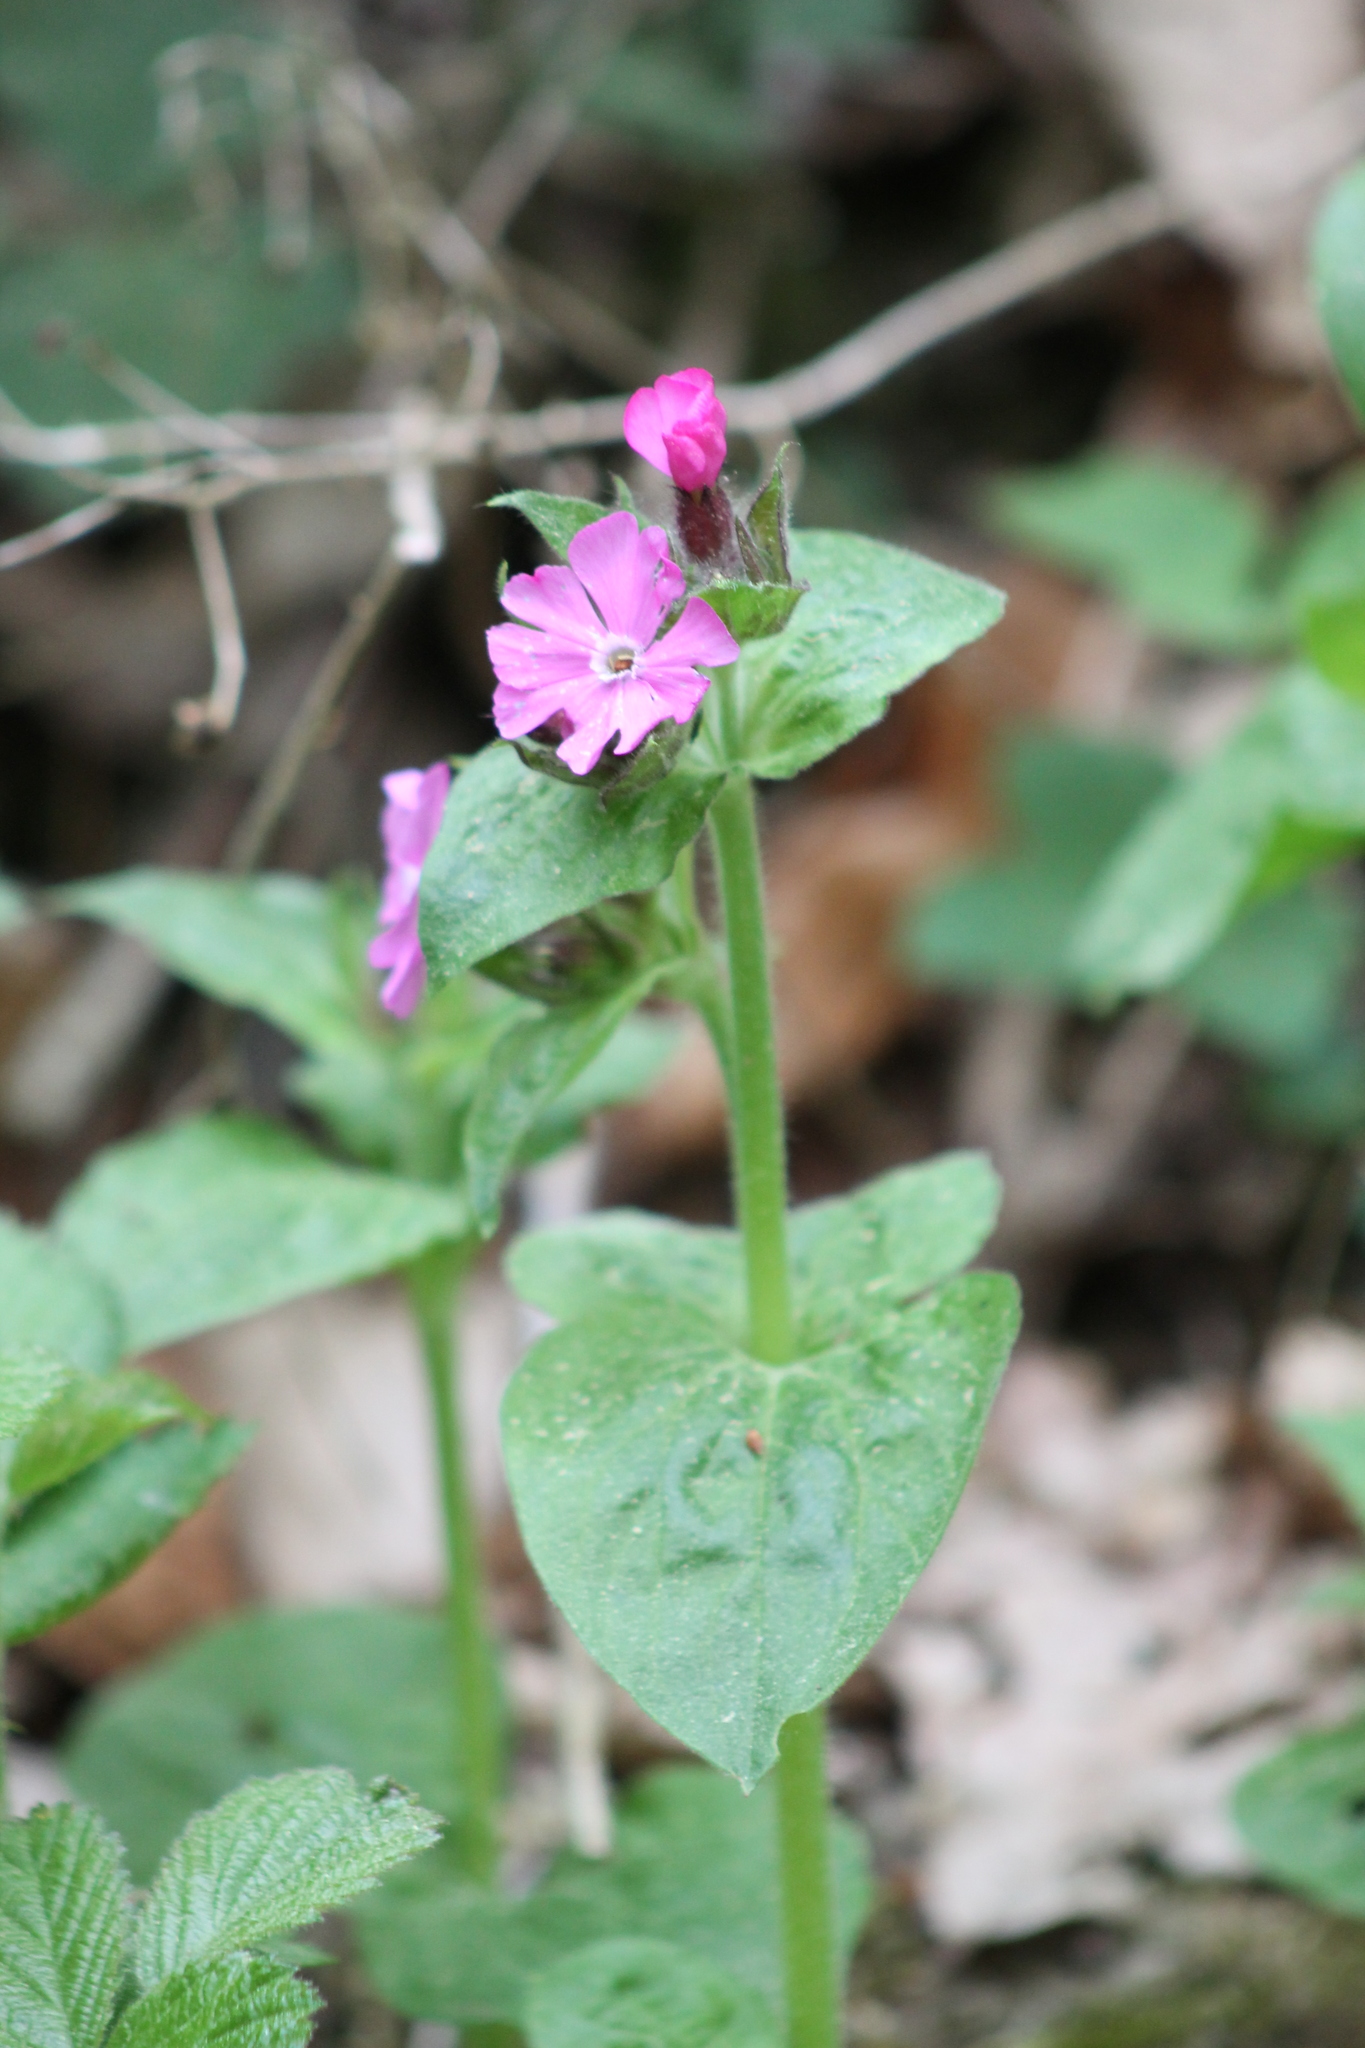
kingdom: Plantae
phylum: Tracheophyta
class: Magnoliopsida
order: Caryophyllales
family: Caryophyllaceae
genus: Silene
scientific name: Silene dioica
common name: Red campion
